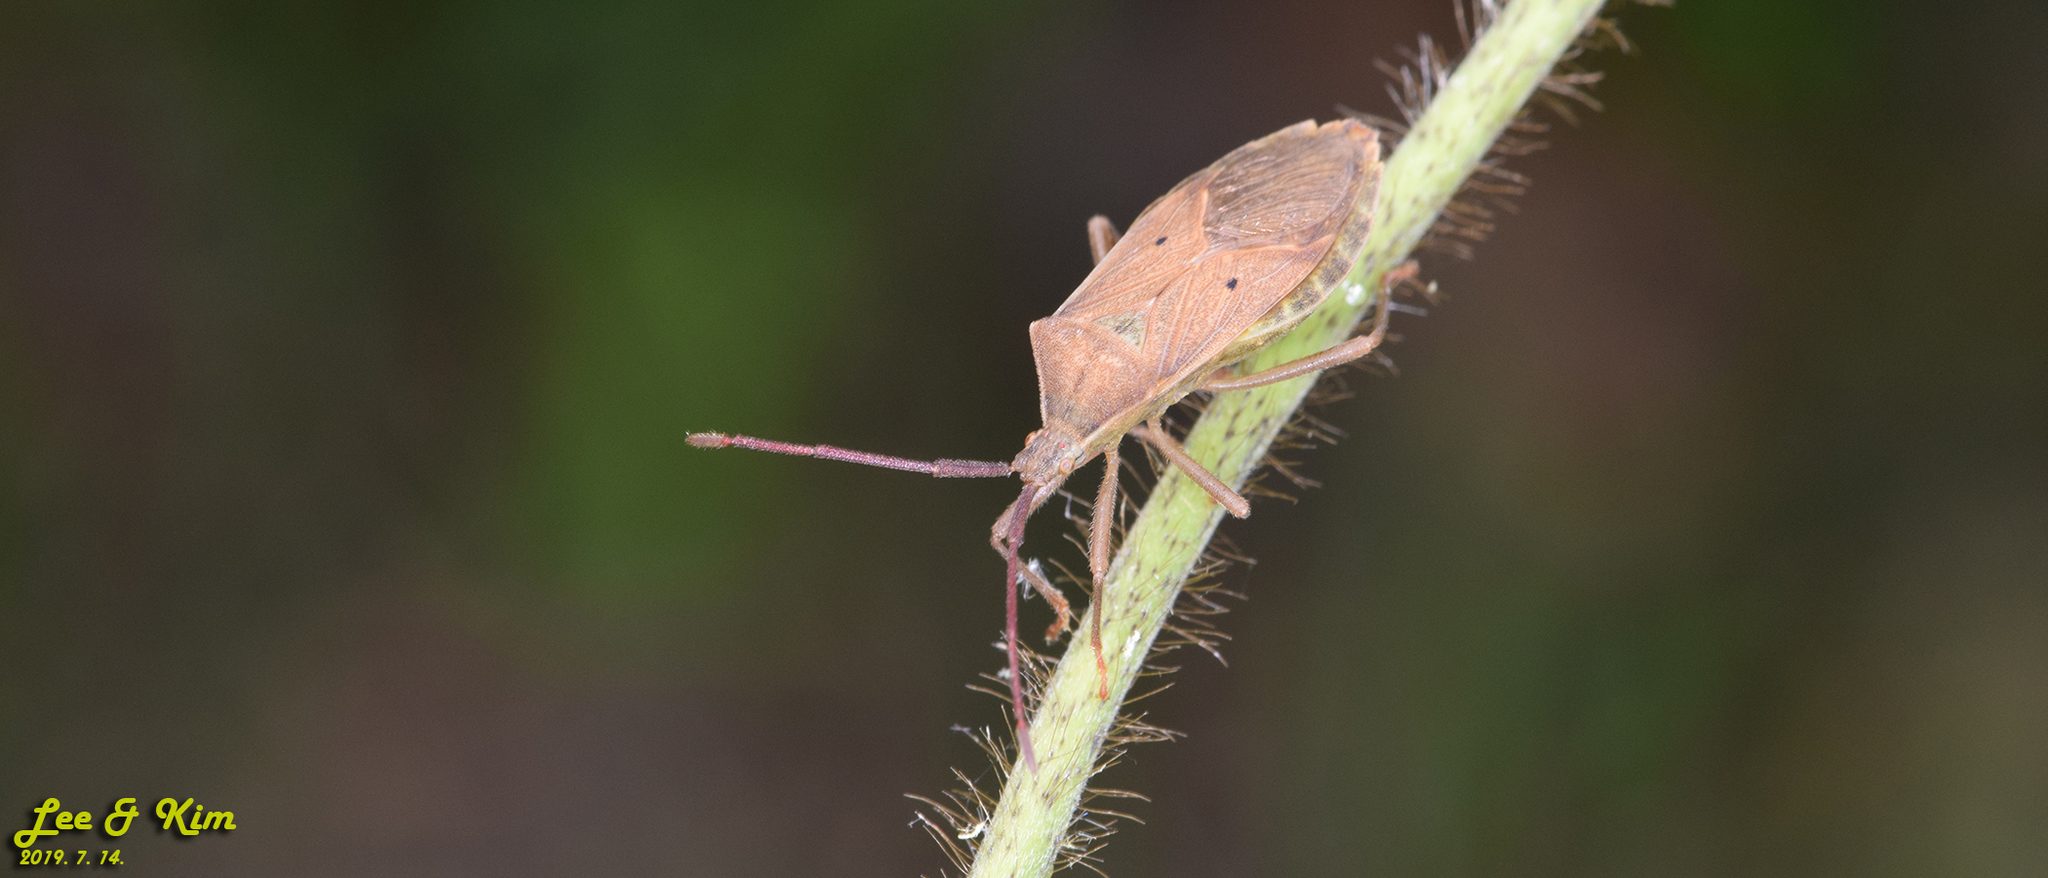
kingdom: Animalia
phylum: Arthropoda
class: Insecta
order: Hemiptera
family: Coreidae
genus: Homoeocerus
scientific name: Homoeocerus unipunctatus
